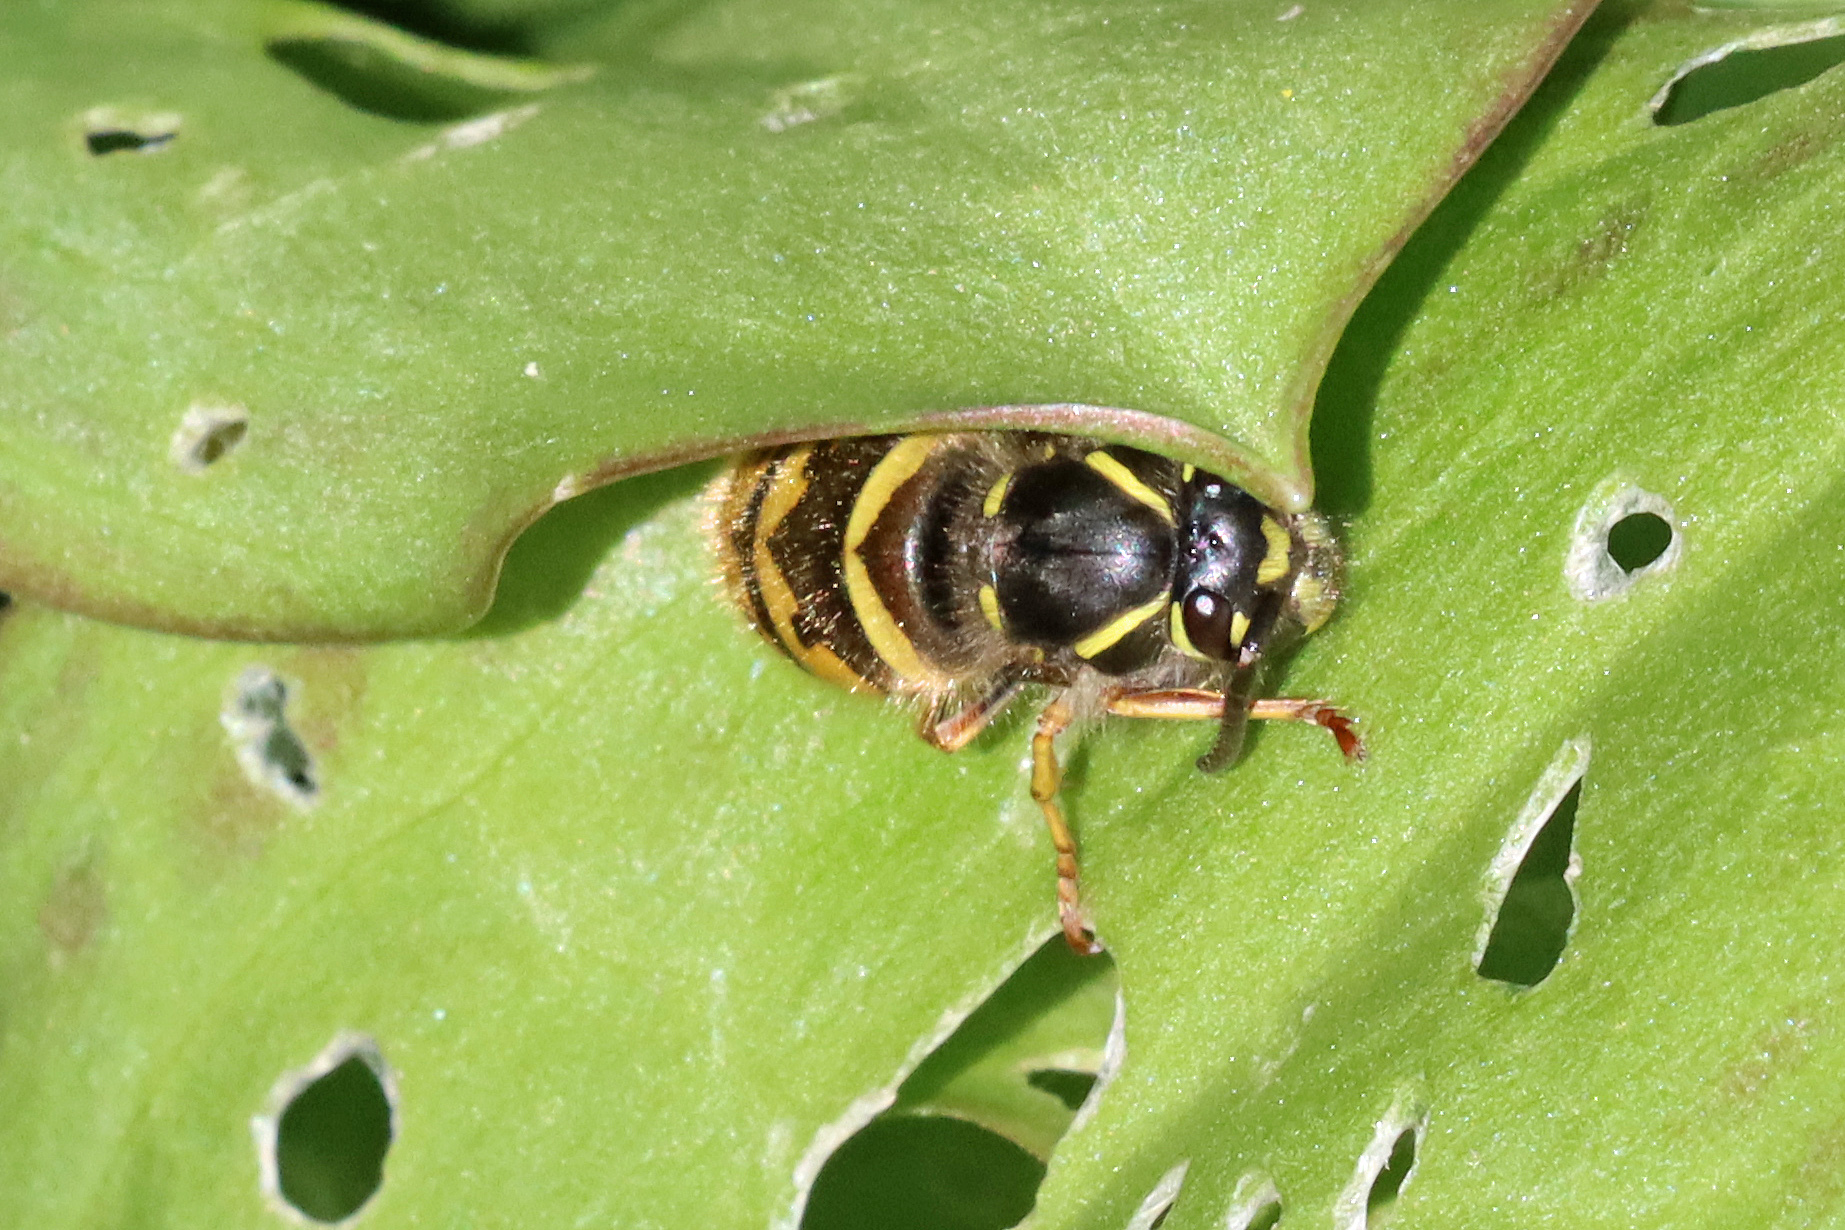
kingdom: Animalia
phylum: Arthropoda
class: Insecta
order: Hymenoptera
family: Vespidae
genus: Vespula
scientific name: Vespula vulgaris
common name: Common wasp
